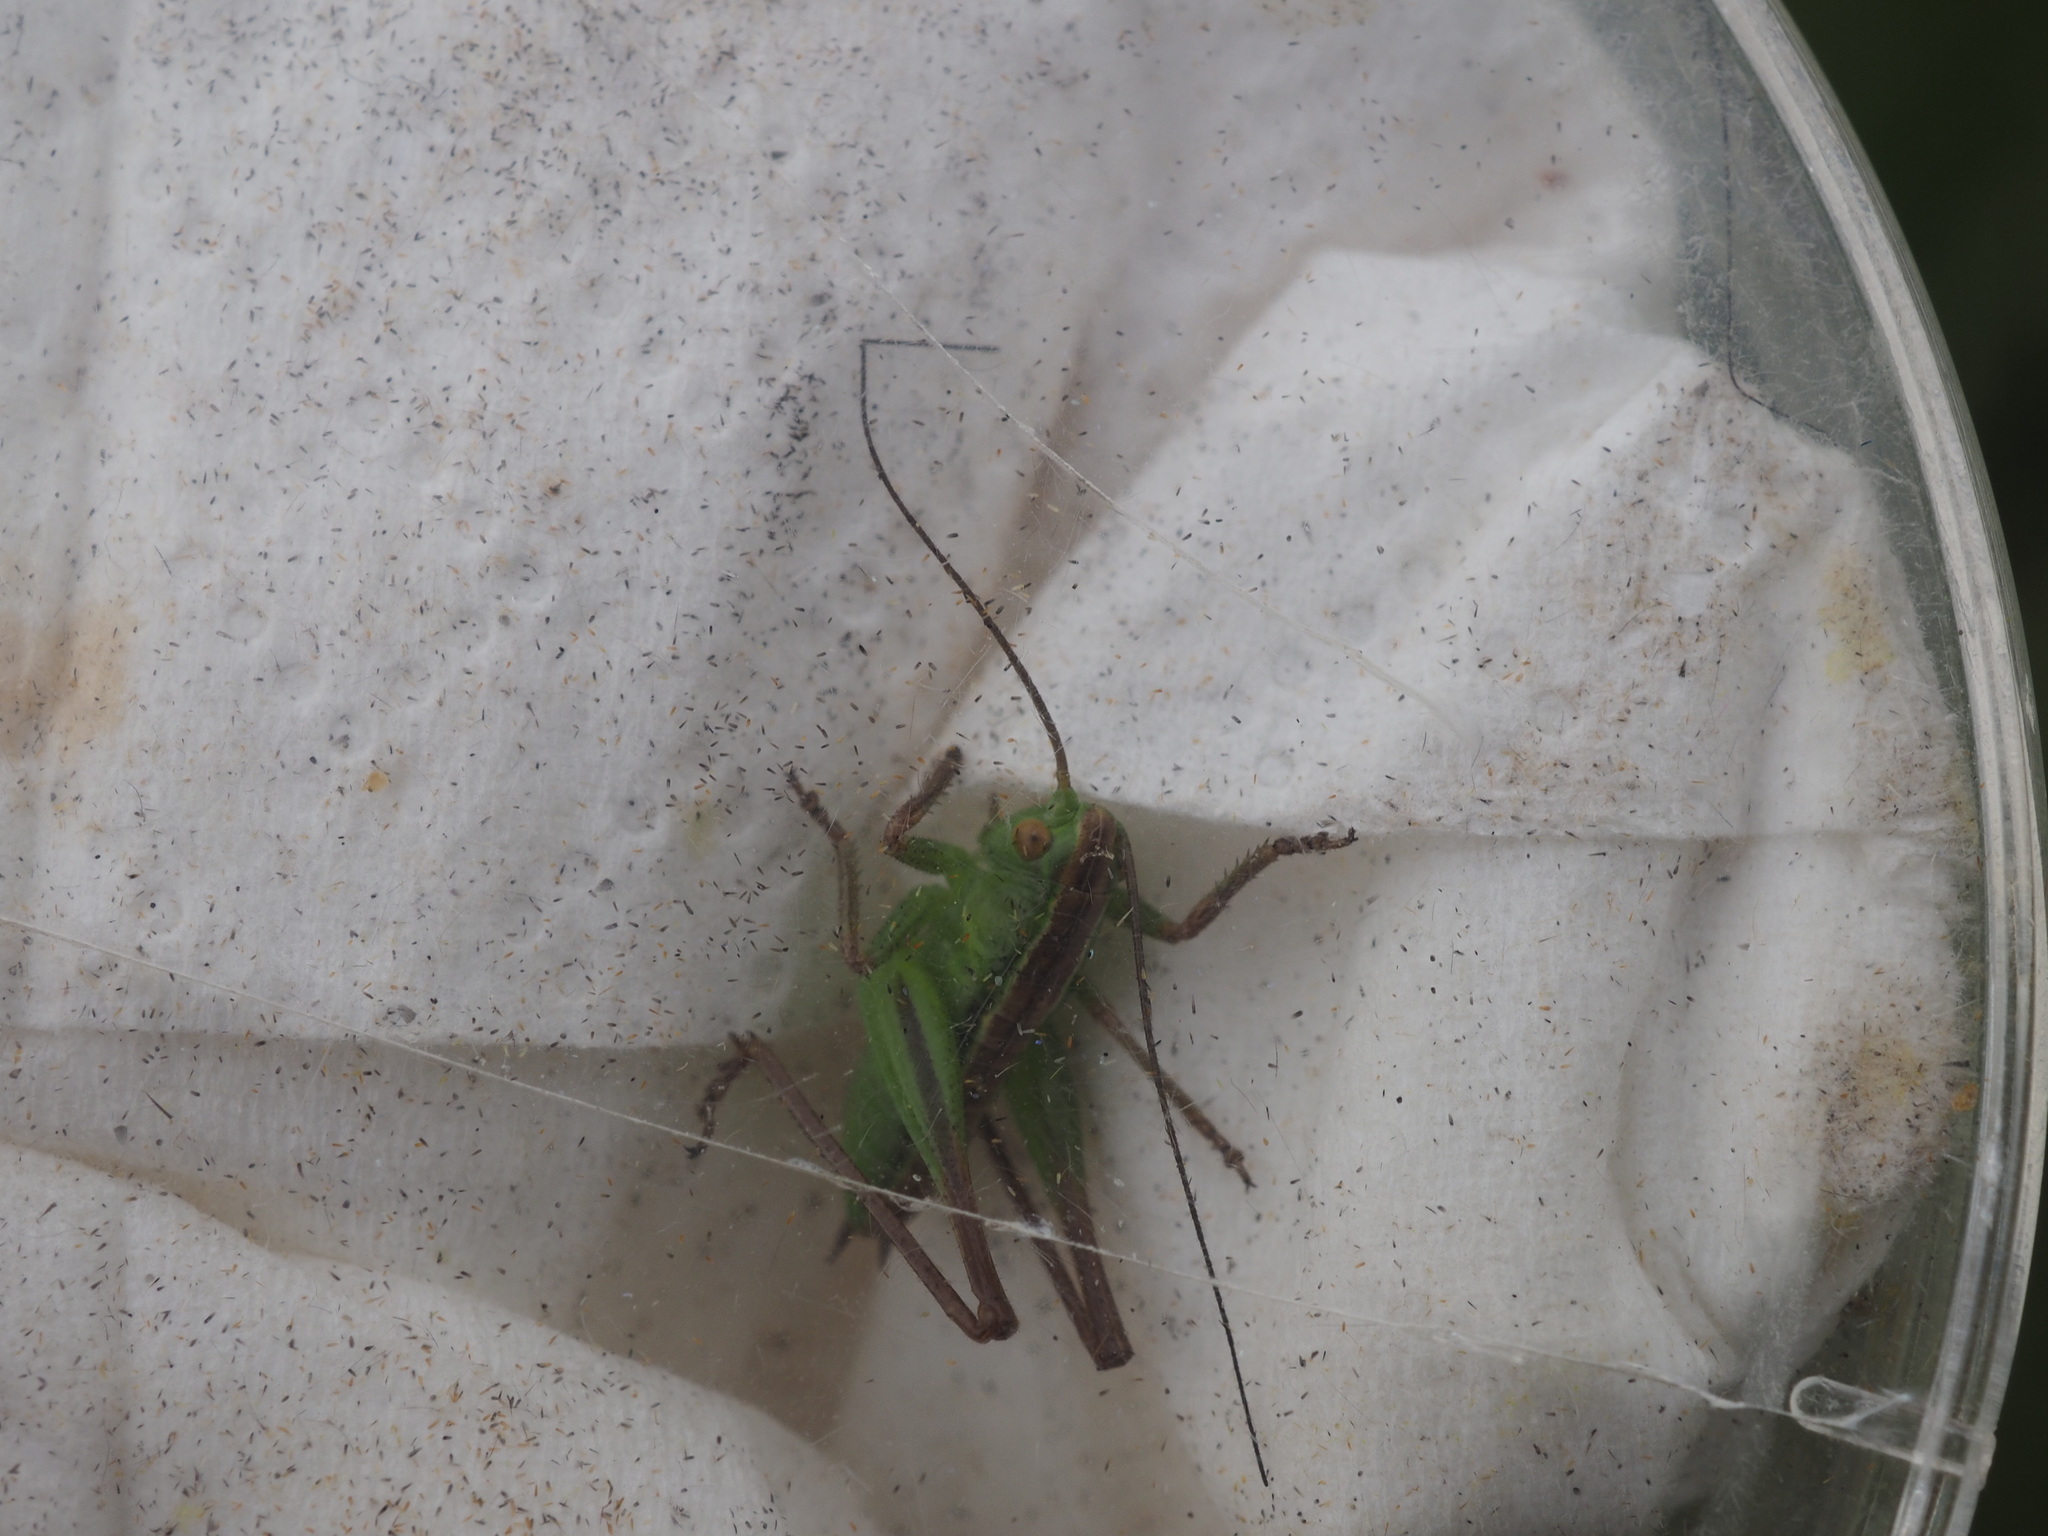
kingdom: Animalia
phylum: Arthropoda
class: Insecta
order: Orthoptera
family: Tettigoniidae
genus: Bicolorana
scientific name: Bicolorana bicolor
